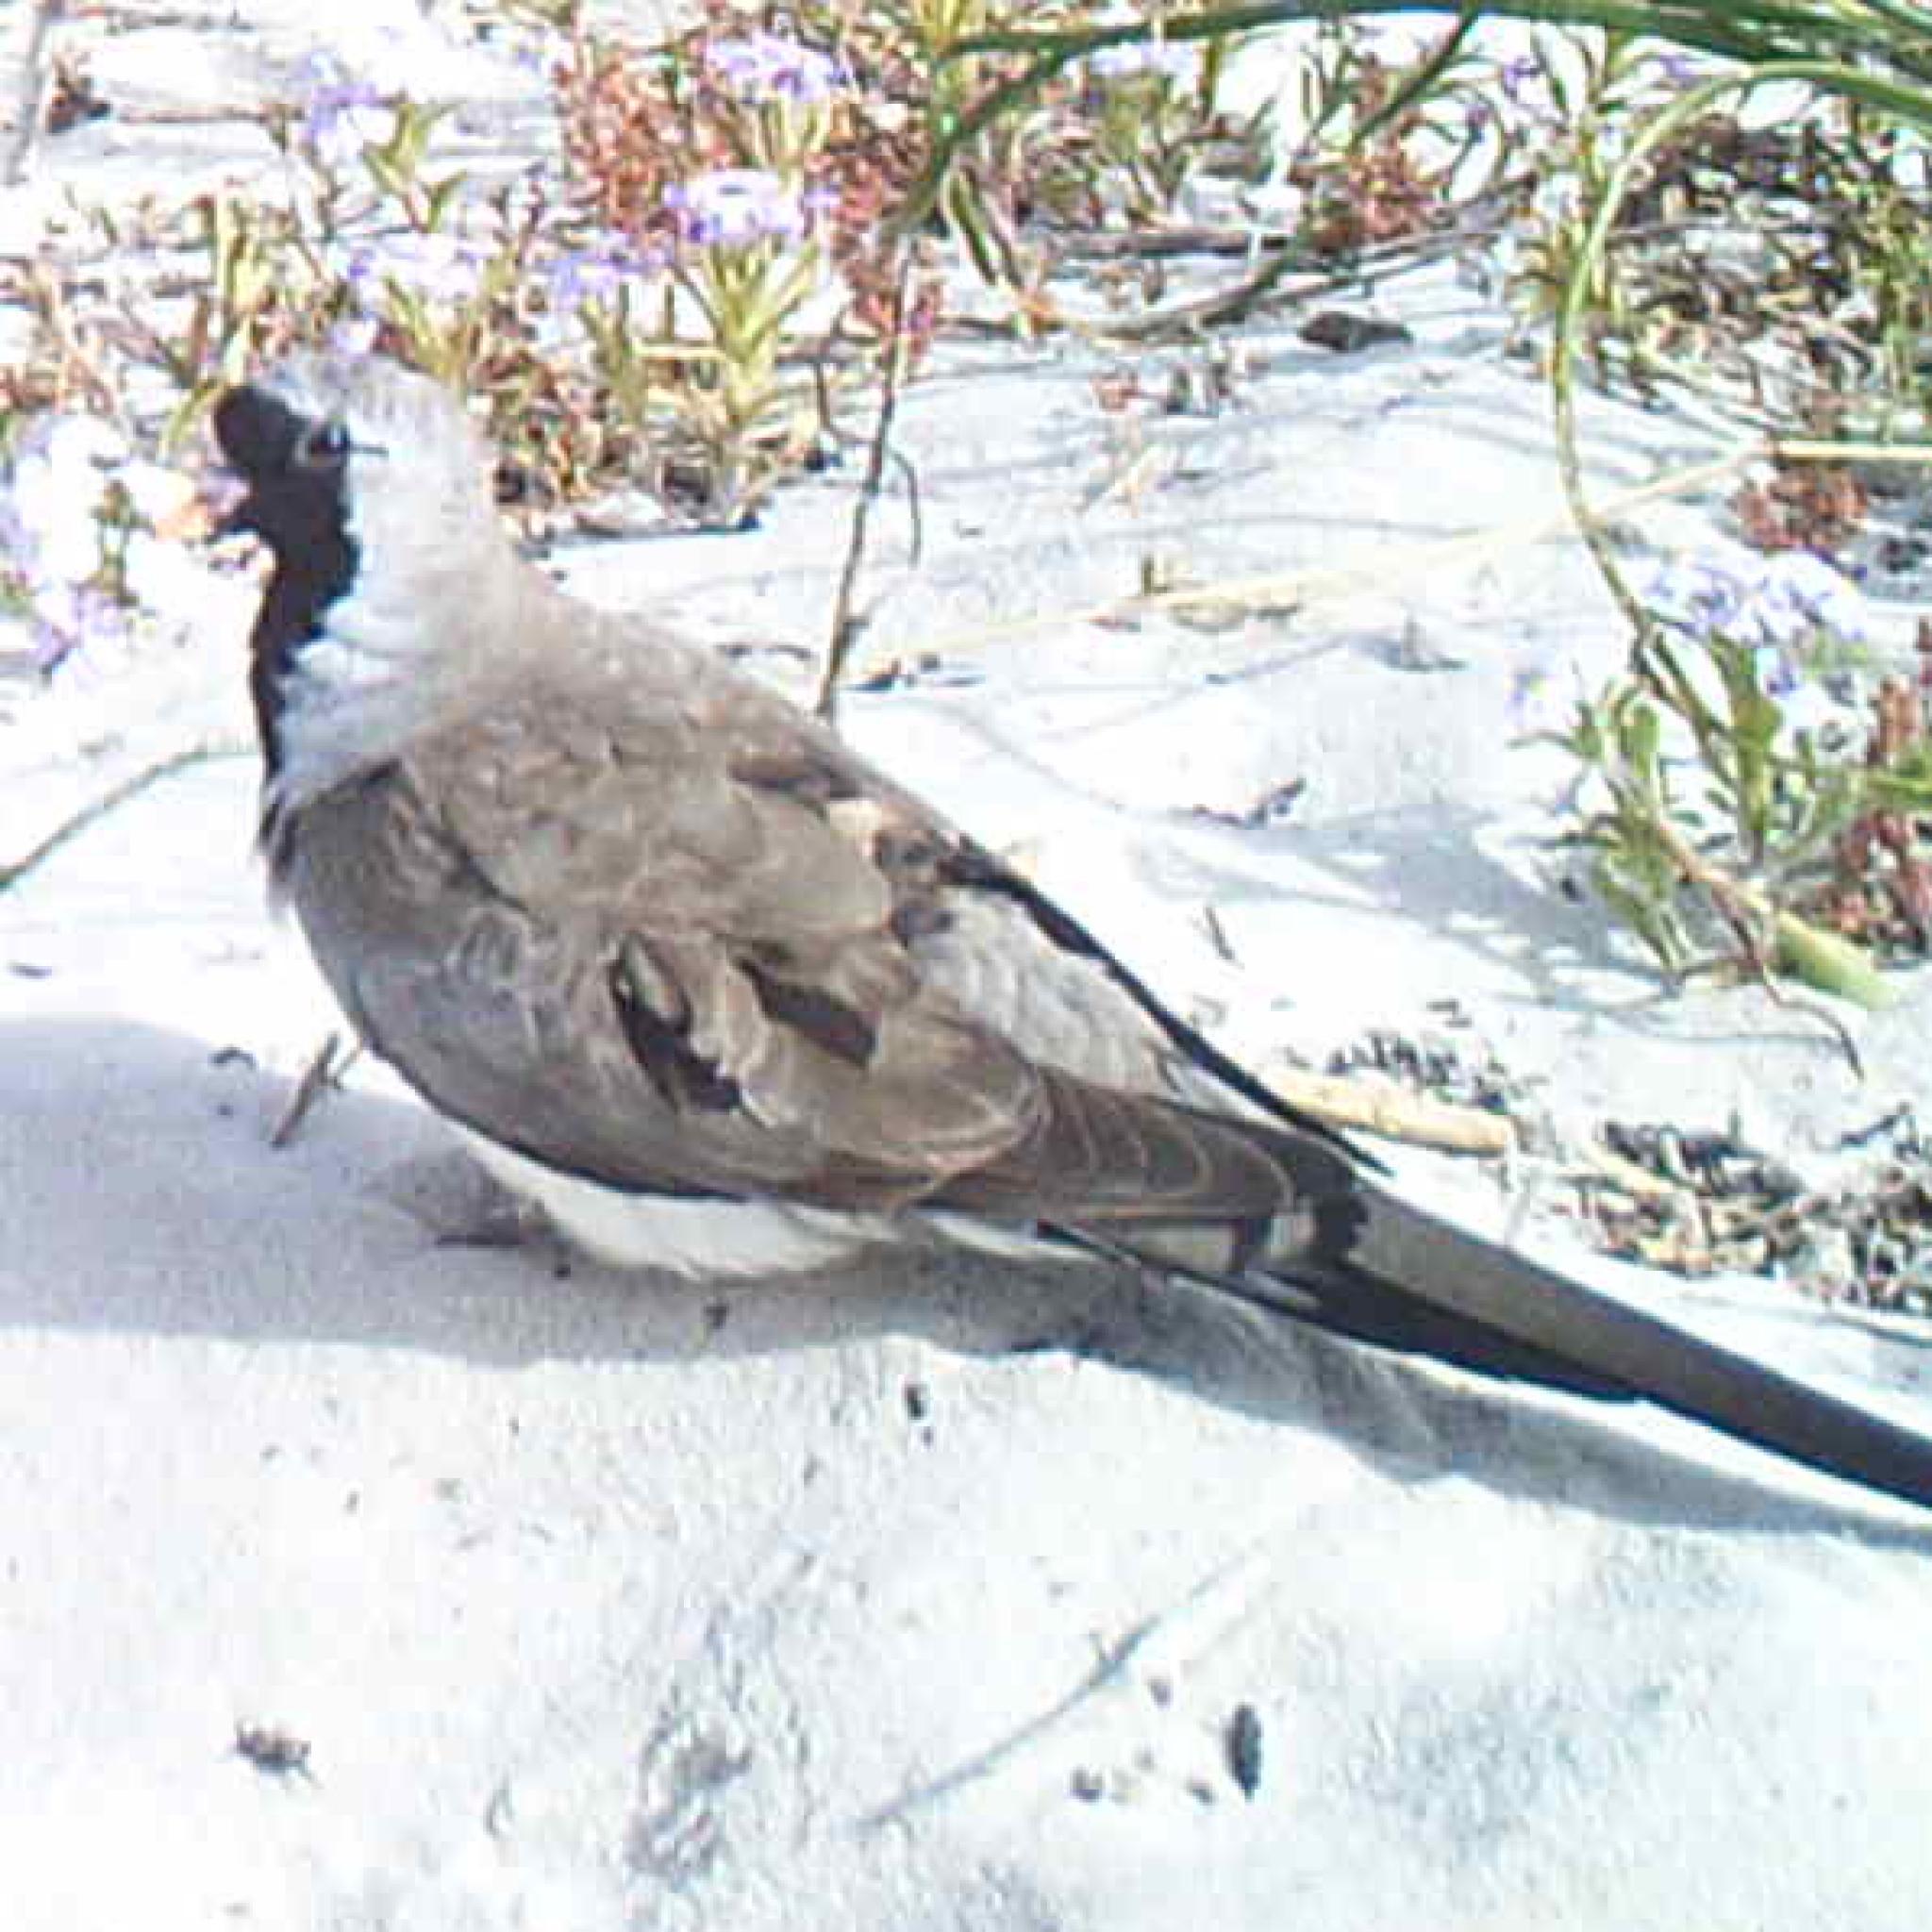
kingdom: Animalia
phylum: Chordata
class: Aves
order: Columbiformes
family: Columbidae
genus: Oena
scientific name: Oena capensis
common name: Namaqua dove
